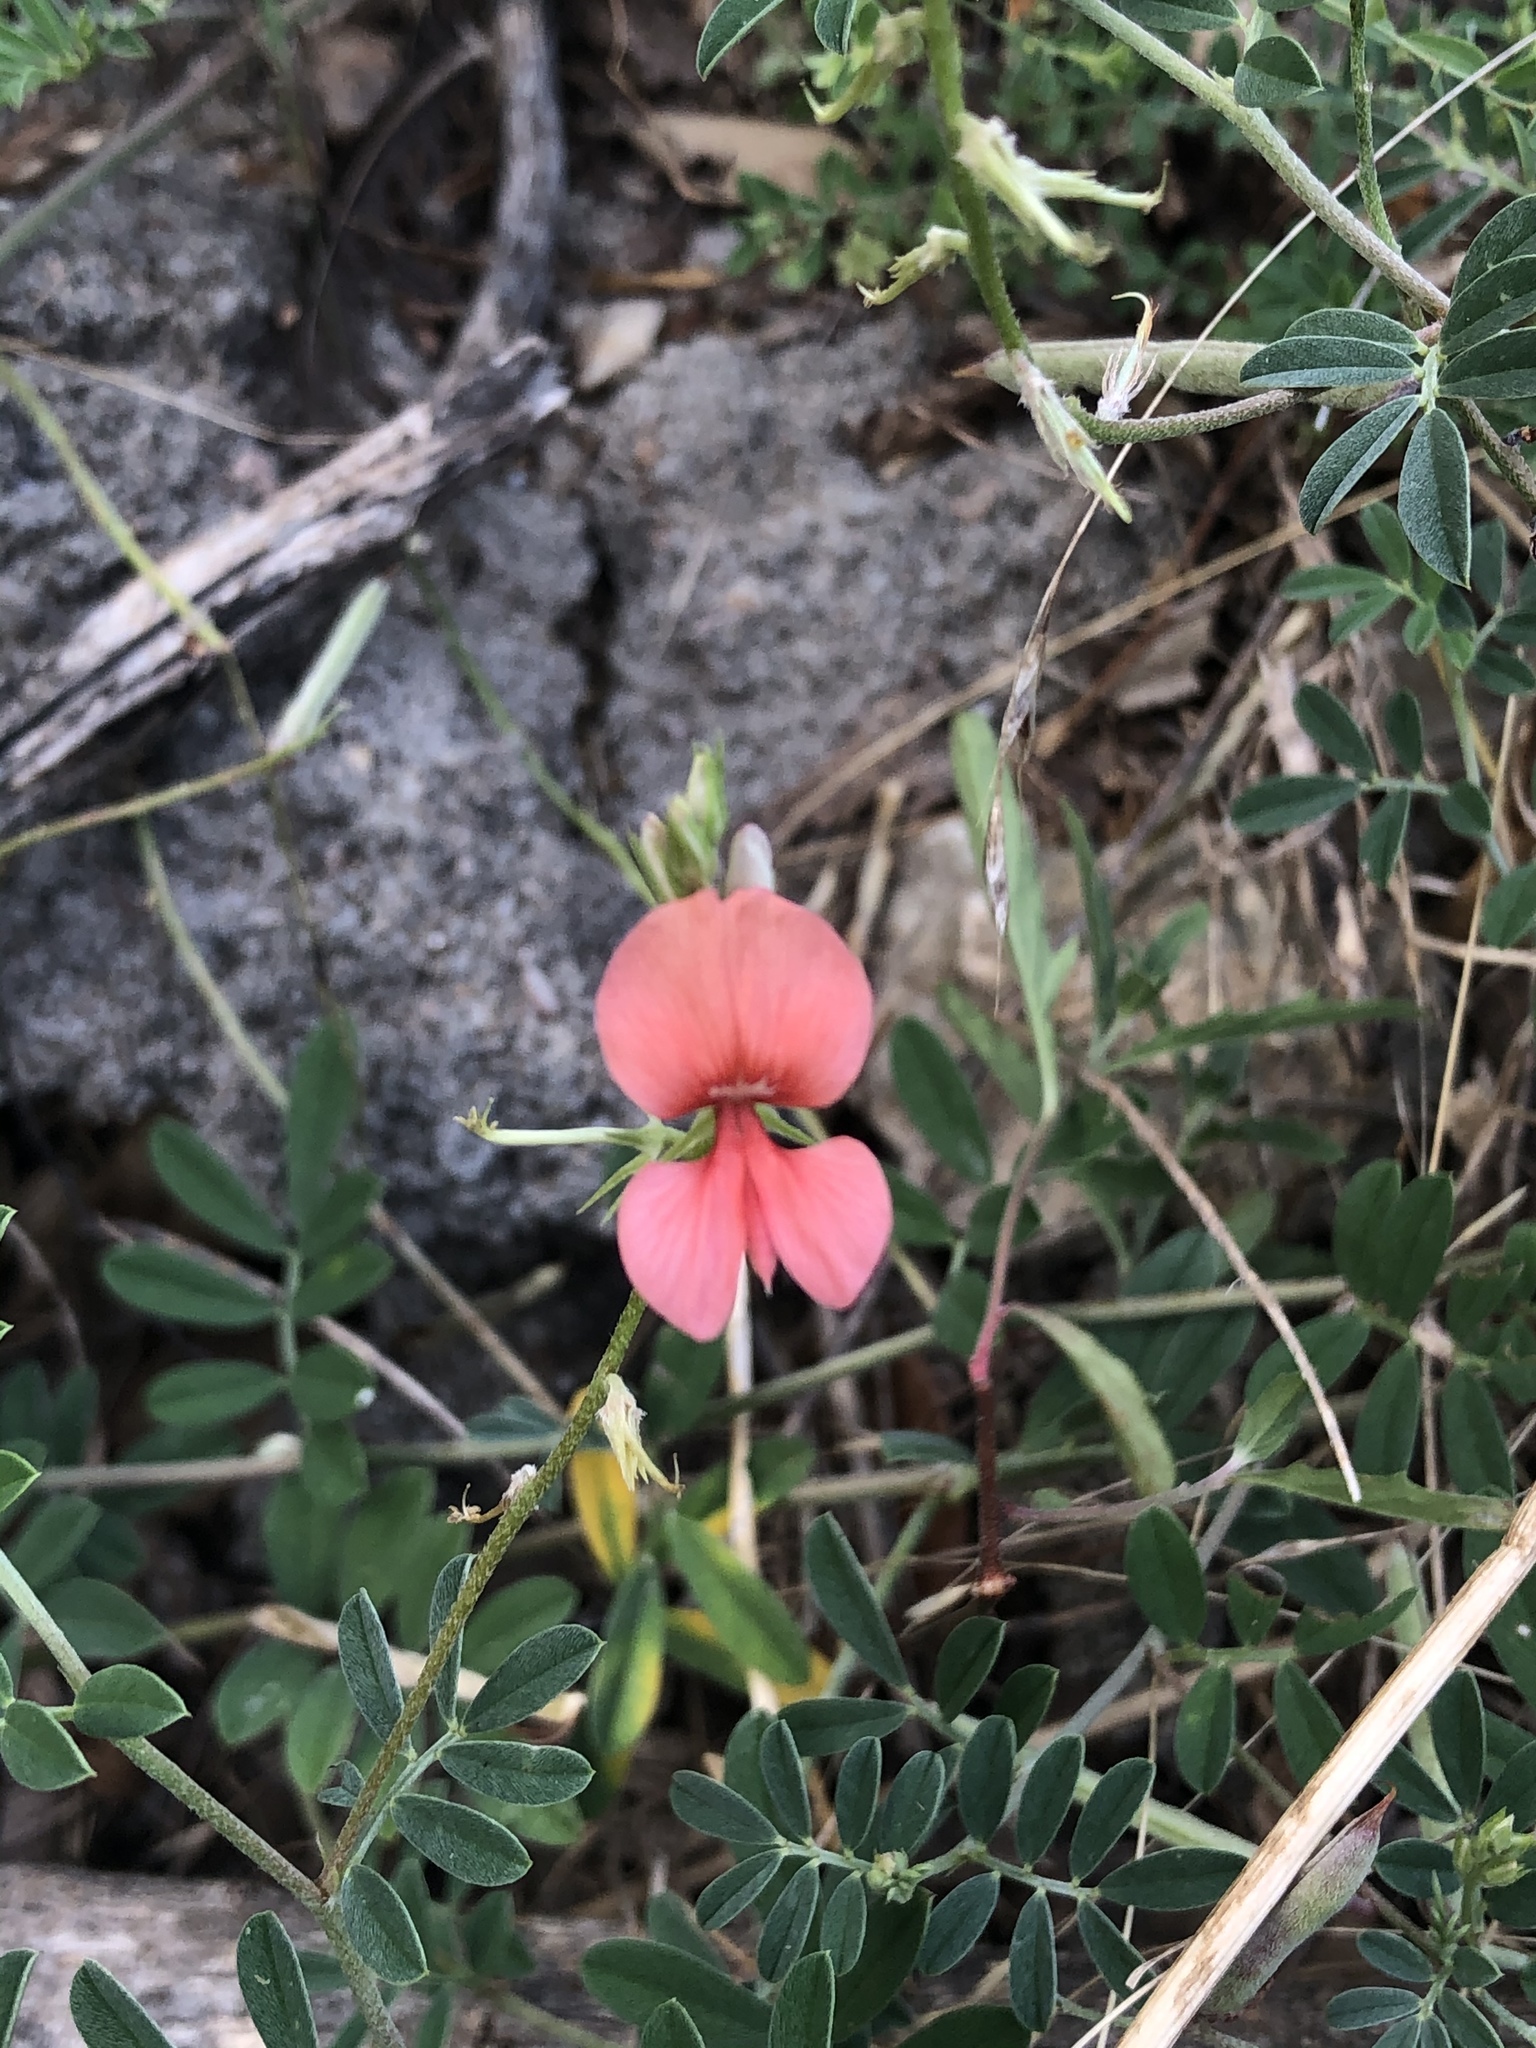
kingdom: Plantae
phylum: Tracheophyta
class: Magnoliopsida
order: Fabales
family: Fabaceae
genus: Indigofera
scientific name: Indigofera miniata
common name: Coast indigo
